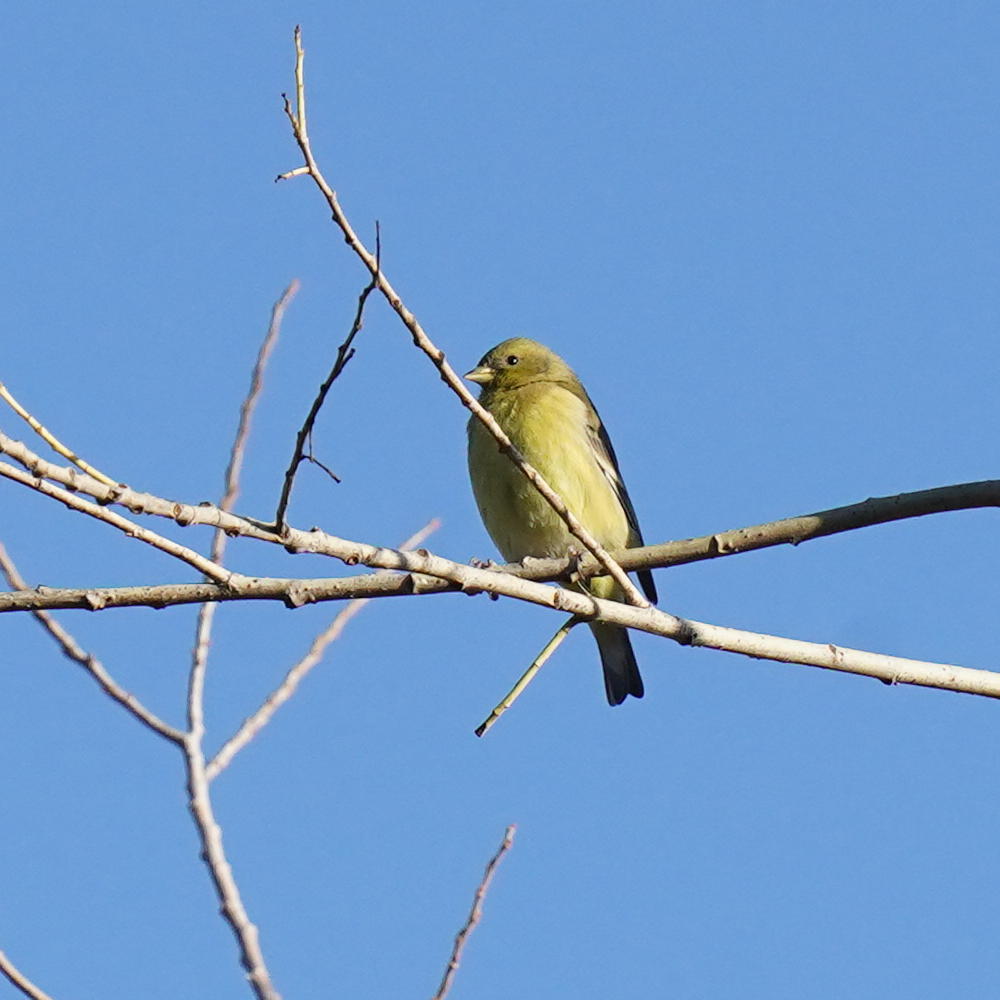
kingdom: Animalia
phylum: Chordata
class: Aves
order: Passeriformes
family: Fringillidae
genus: Spinus
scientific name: Spinus psaltria
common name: Lesser goldfinch
